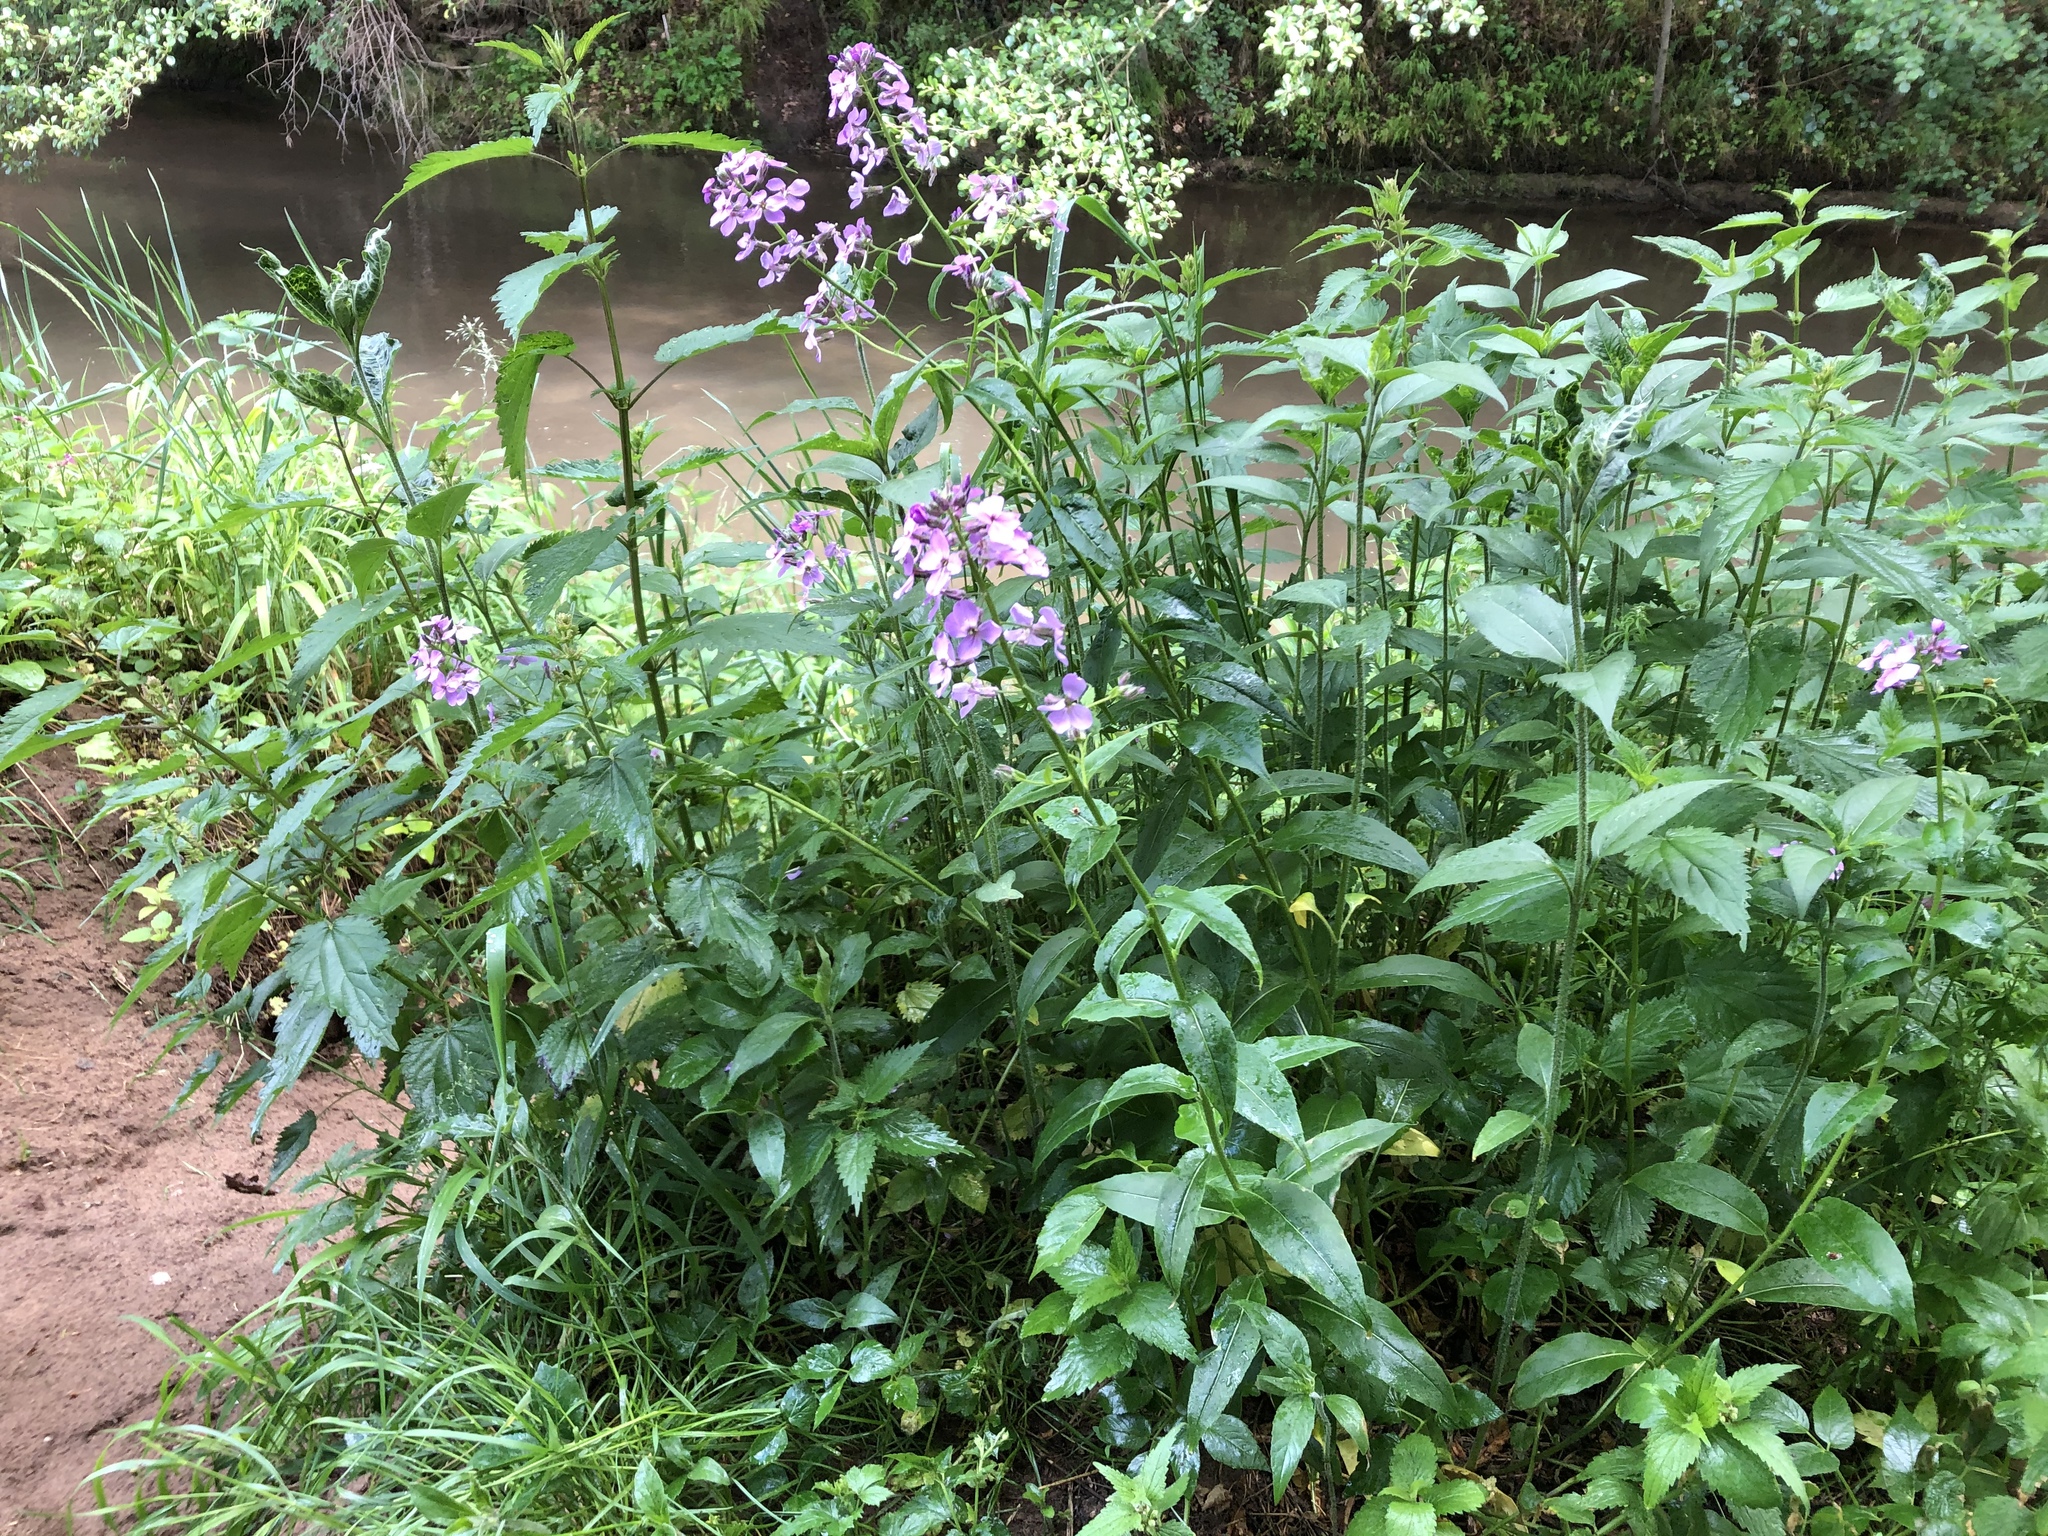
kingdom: Plantae
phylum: Tracheophyta
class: Magnoliopsida
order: Brassicales
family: Brassicaceae
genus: Hesperis
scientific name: Hesperis matronalis
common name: Dame's-violet
